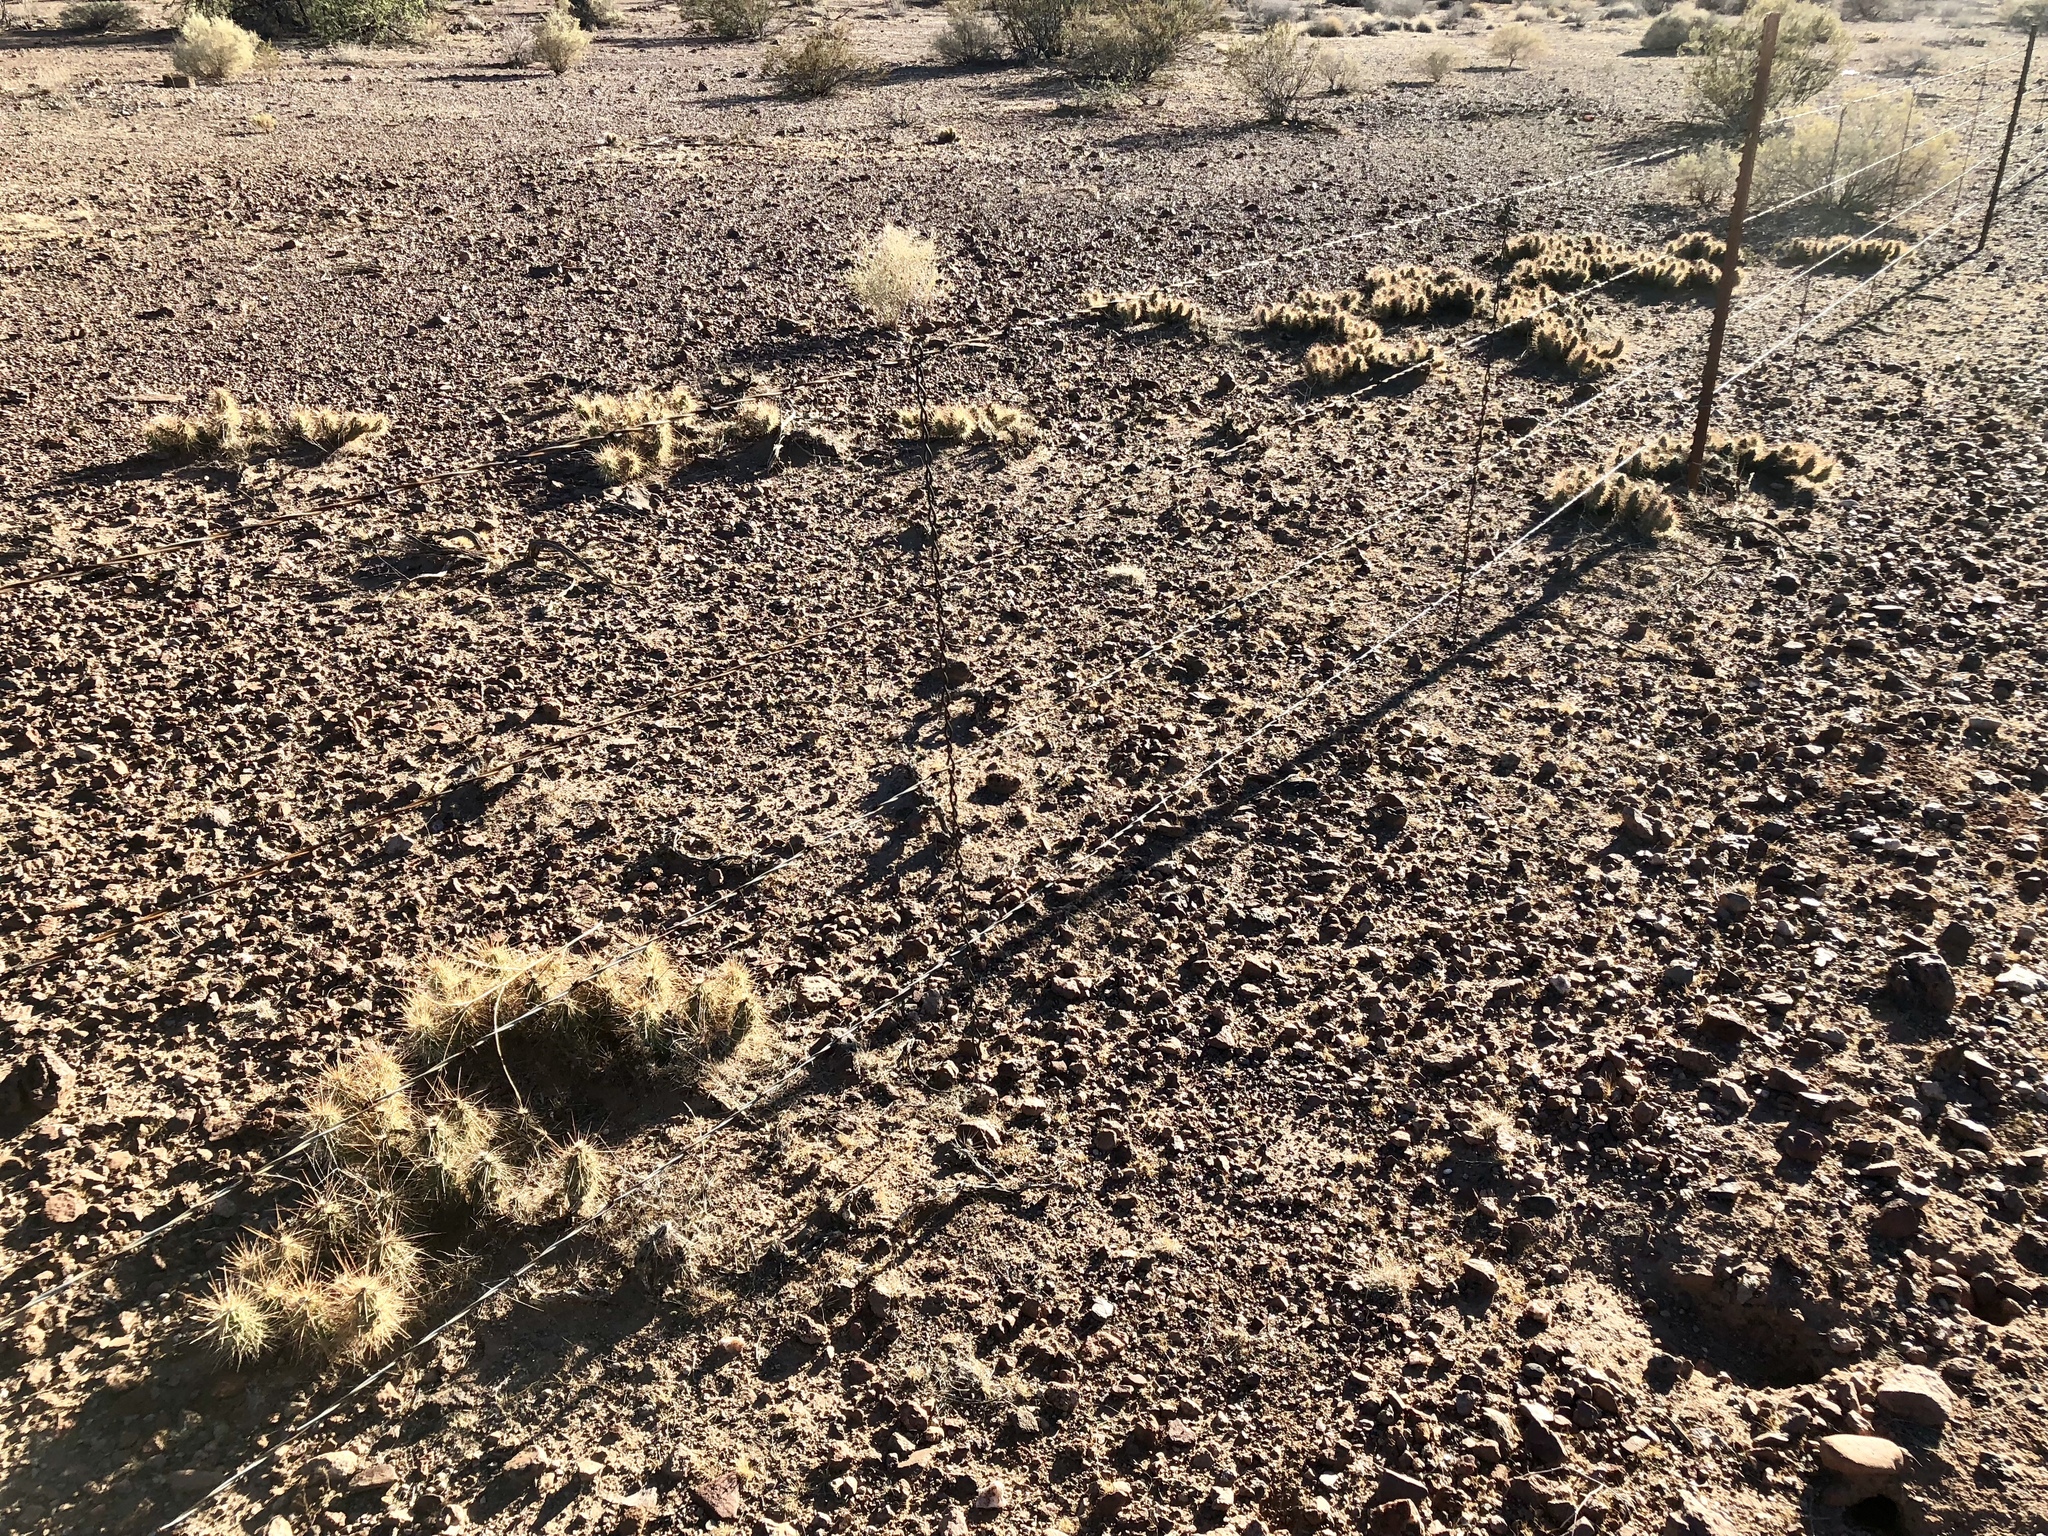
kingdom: Plantae
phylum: Tracheophyta
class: Magnoliopsida
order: Caryophyllales
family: Cactaceae
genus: Grusonia
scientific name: Grusonia emoryi
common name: Stanly's club cholla
